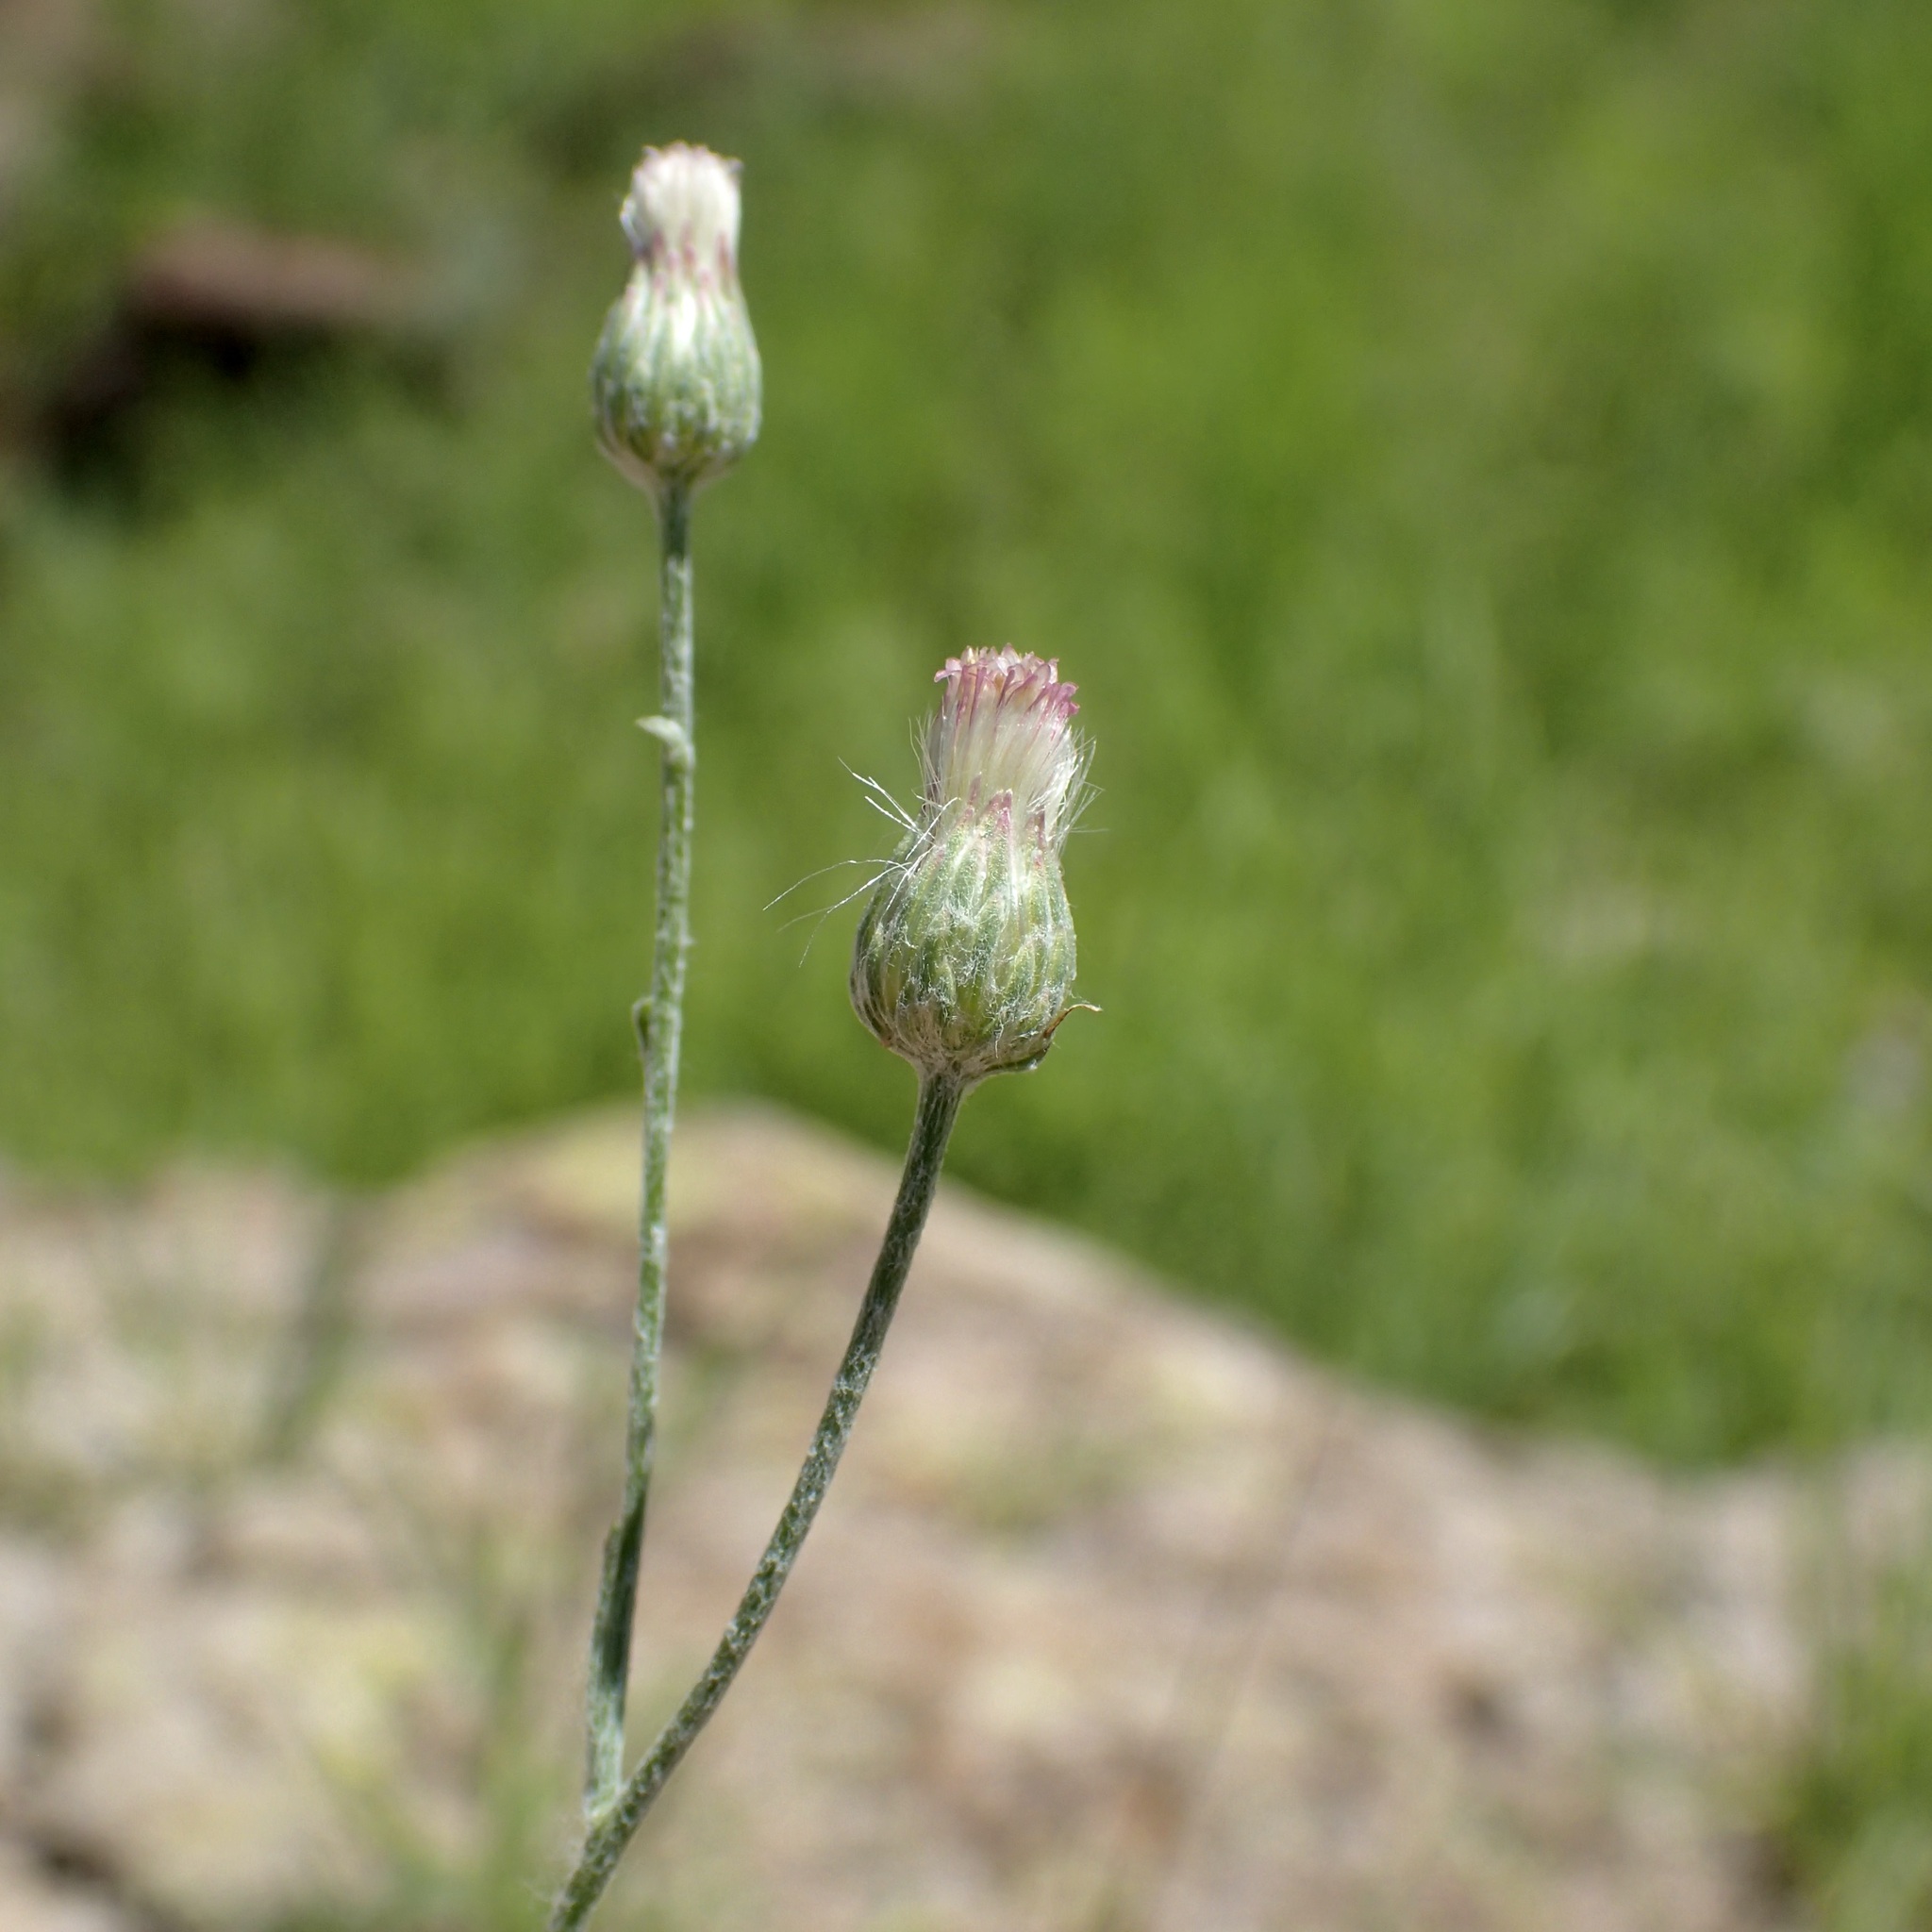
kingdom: Plantae
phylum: Tracheophyta
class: Magnoliopsida
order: Asterales
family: Asteraceae
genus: Laennecia
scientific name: Laennecia eriophylla
